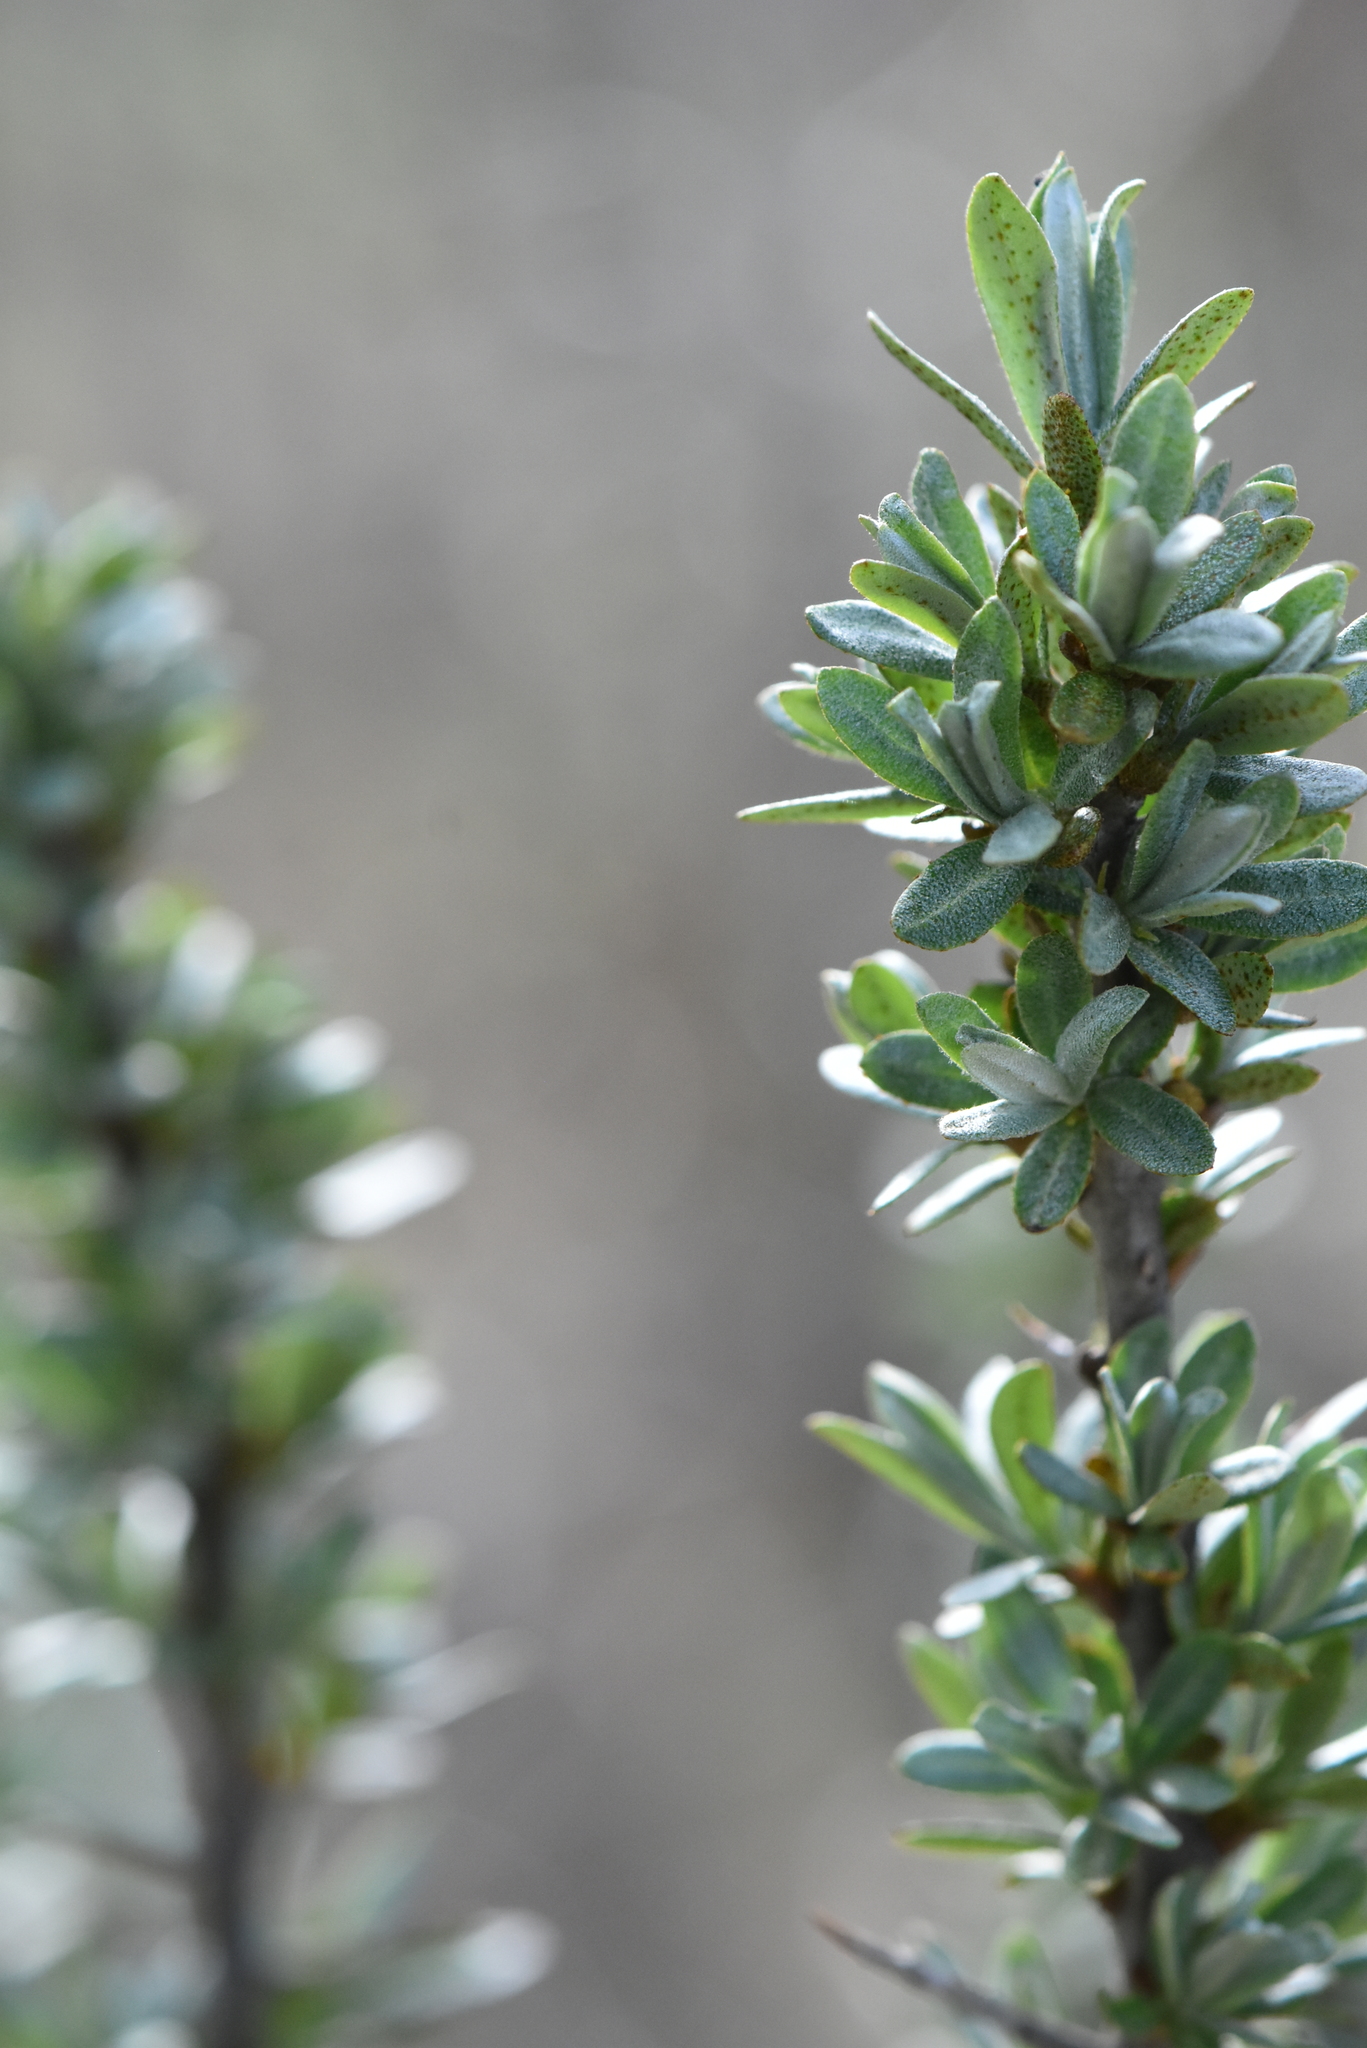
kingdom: Plantae
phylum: Tracheophyta
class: Magnoliopsida
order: Rosales
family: Elaeagnaceae
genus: Hippophae
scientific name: Hippophae rhamnoides
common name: Sea-buckthorn
